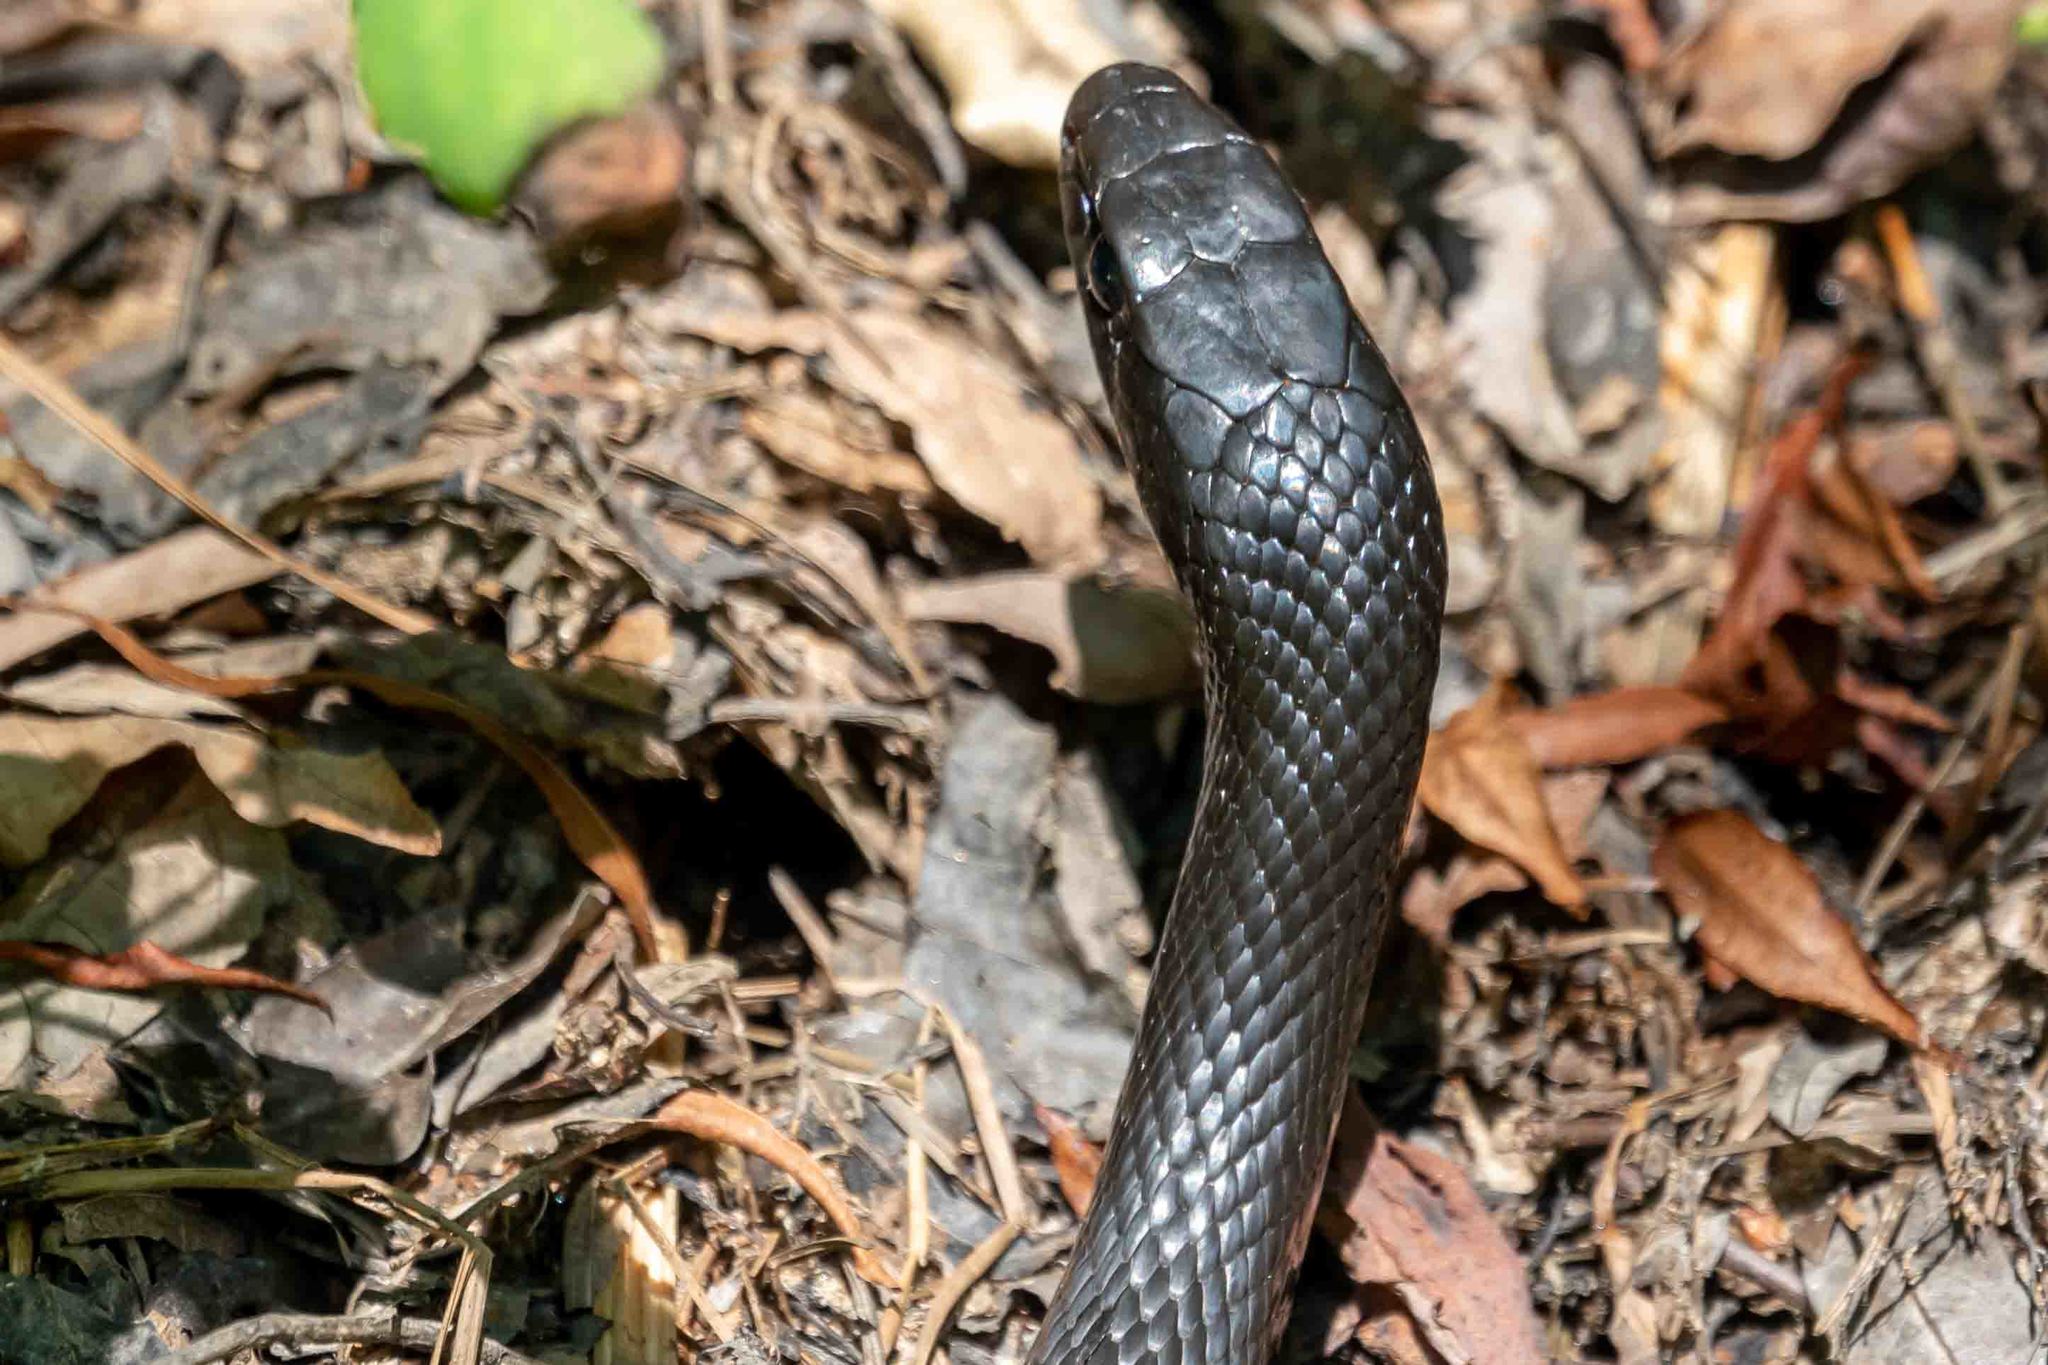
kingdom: Animalia
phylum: Chordata
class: Squamata
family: Colubridae
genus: Coluber
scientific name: Coluber constrictor
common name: Eastern racer
